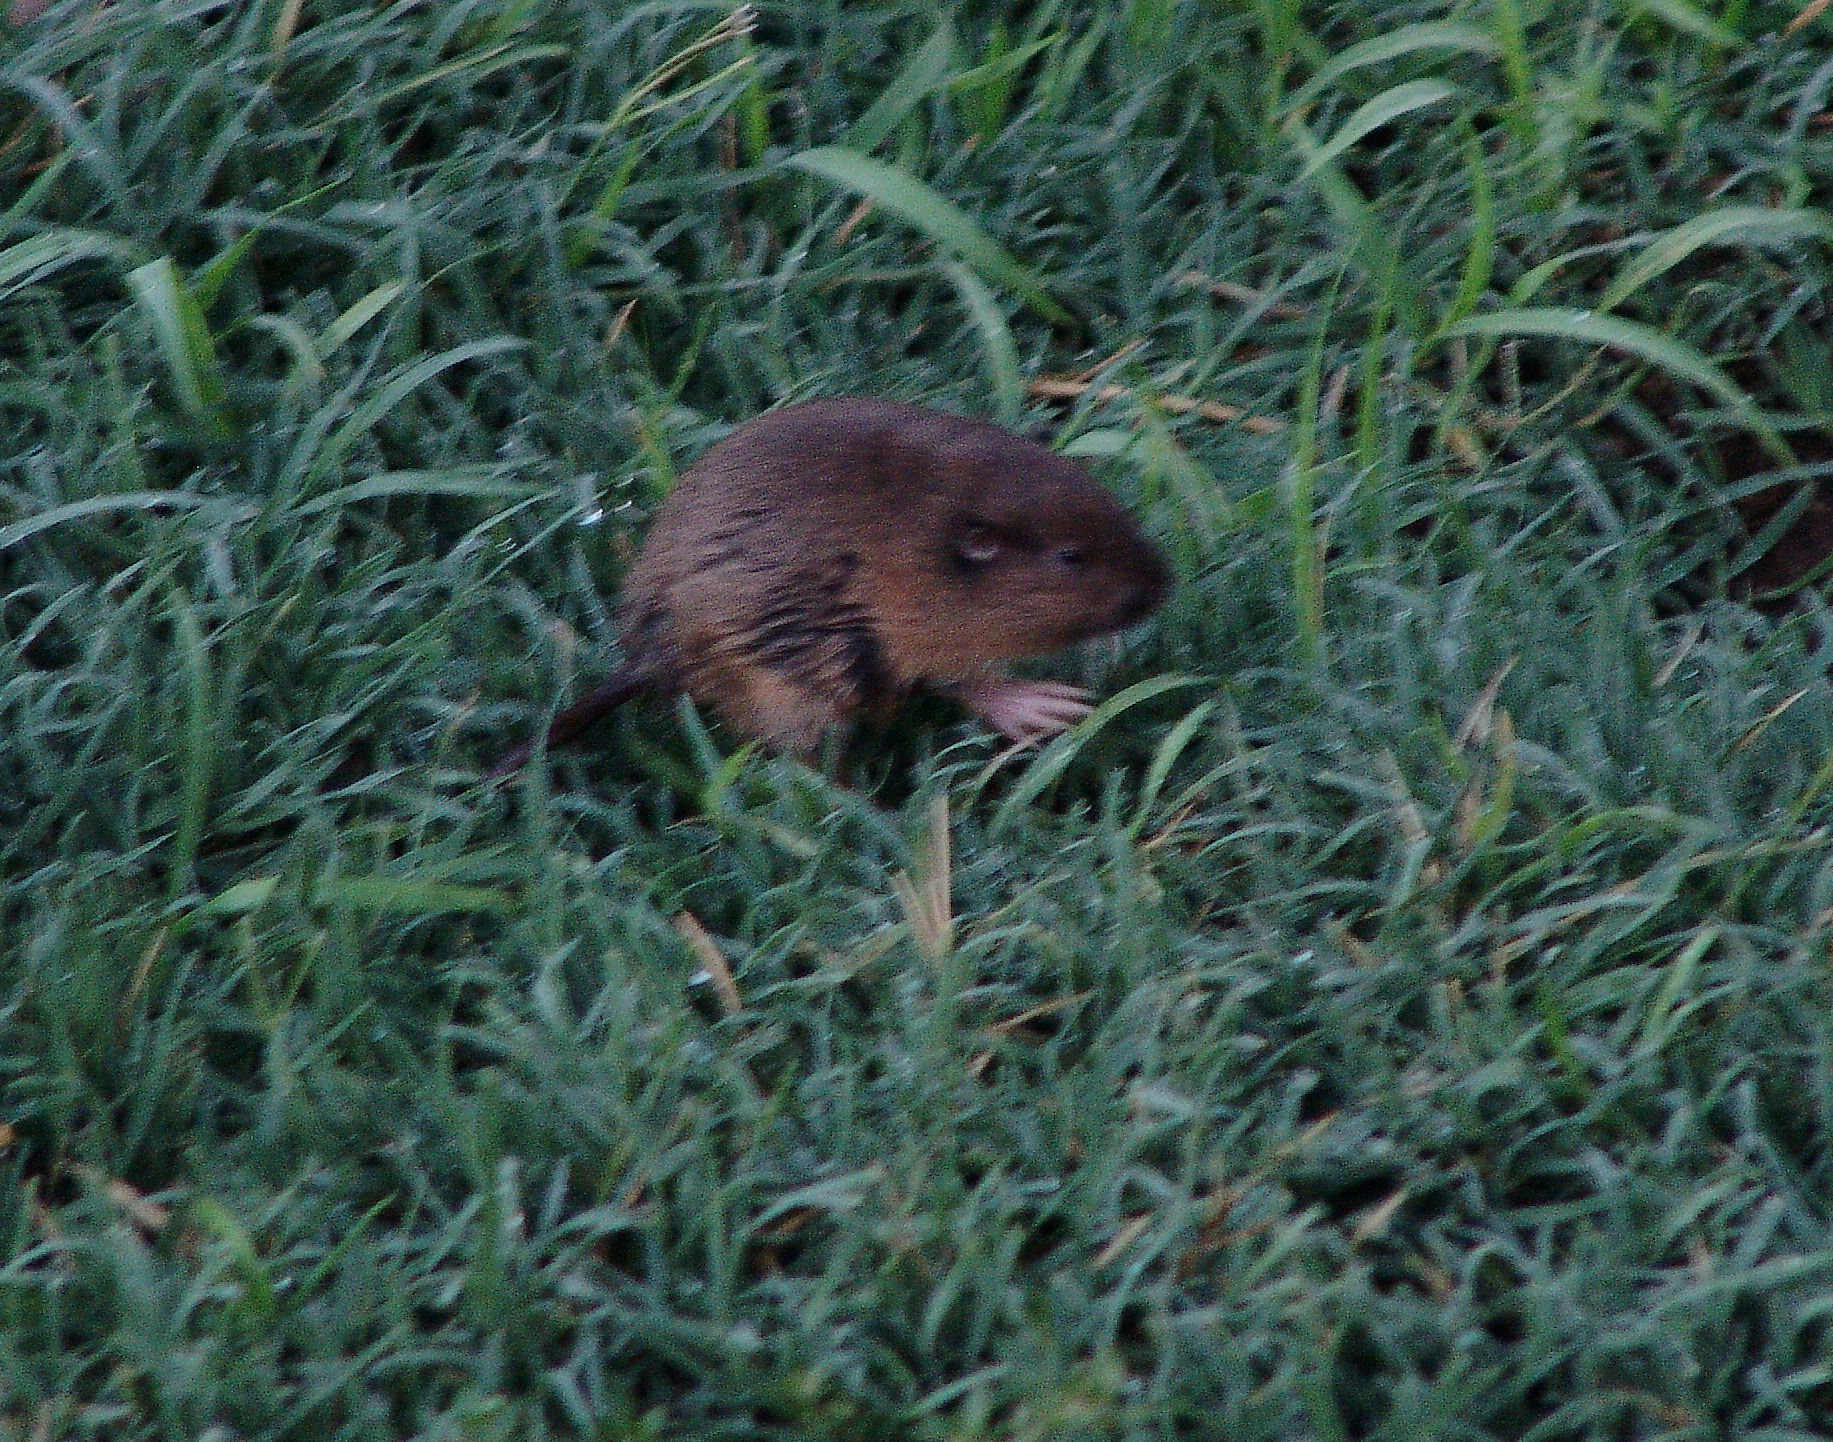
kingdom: Animalia
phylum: Chordata
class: Mammalia
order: Rodentia
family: Geomyidae
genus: Thomomys
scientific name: Thomomys bottae
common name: Botta's pocket gopher
